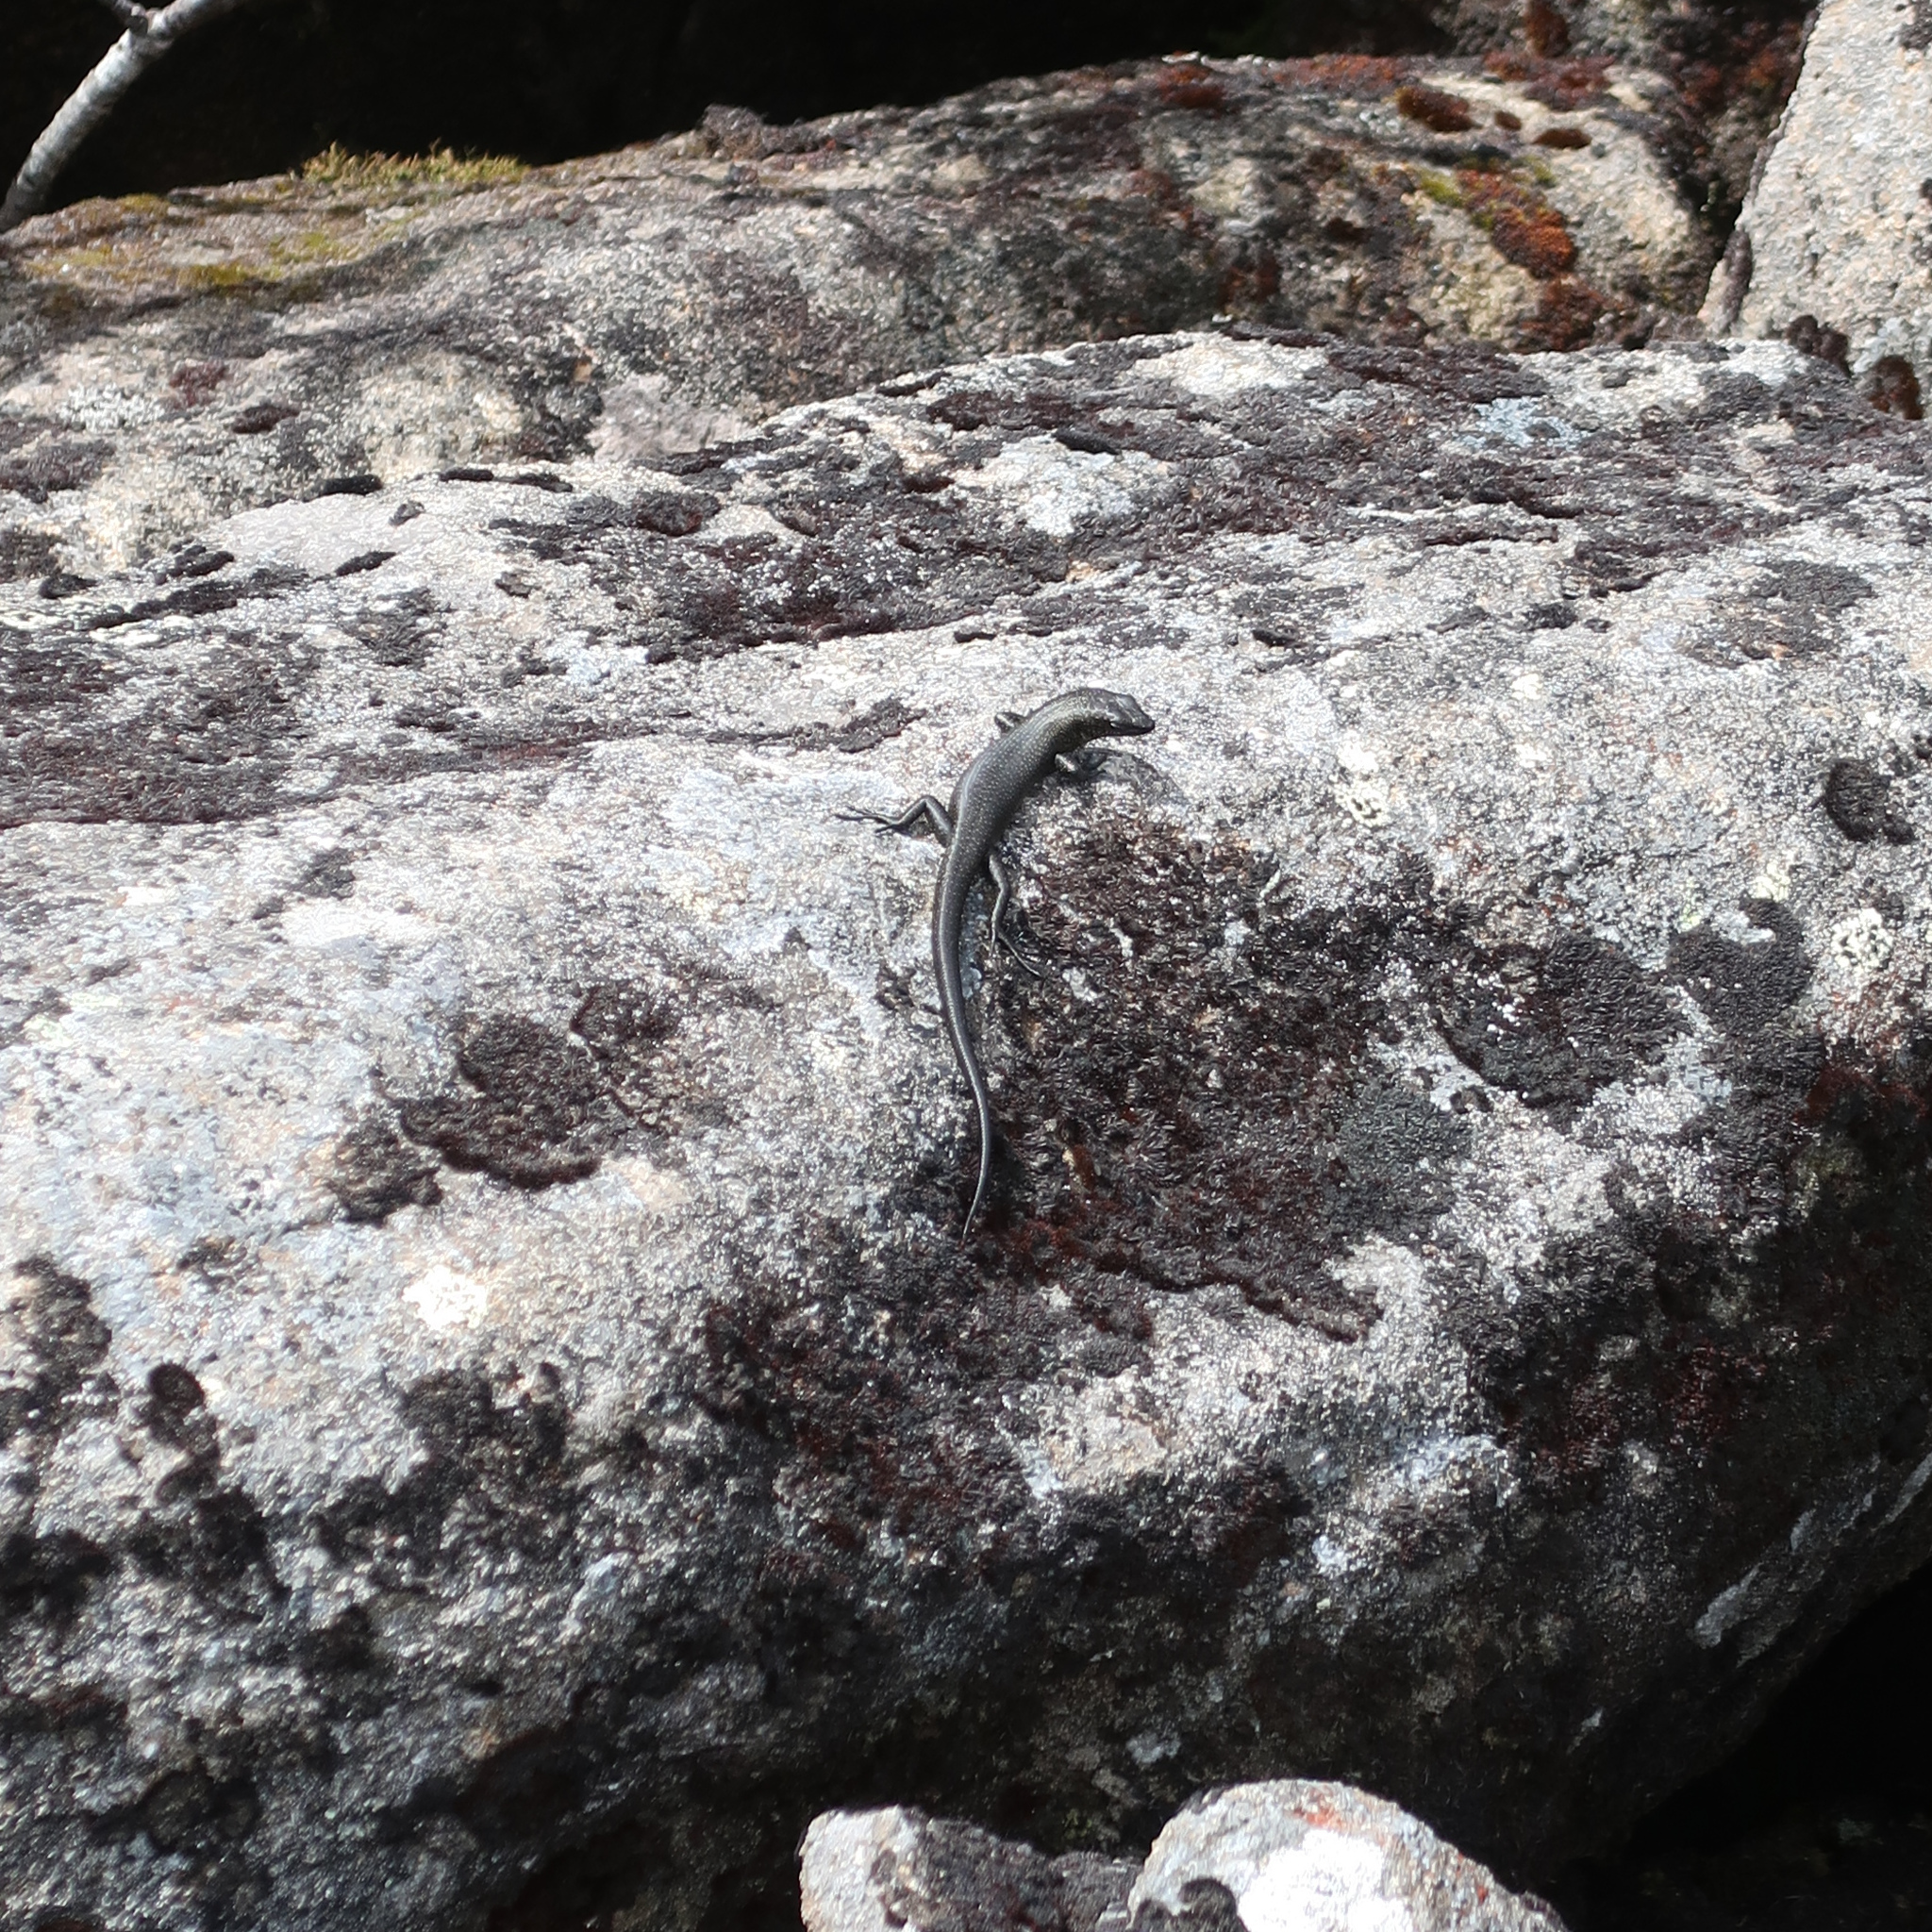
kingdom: Animalia
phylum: Chordata
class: Squamata
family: Scincidae
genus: Carinascincus
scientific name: Carinascincus greeni
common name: Alpine cool-skink
